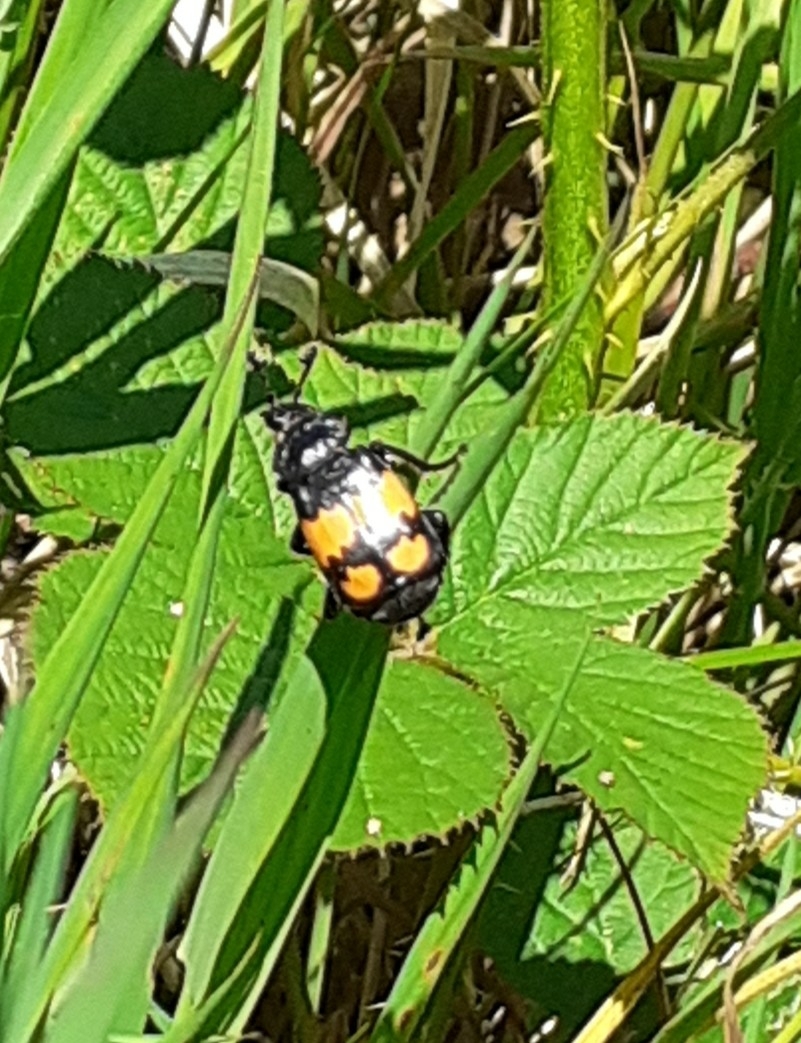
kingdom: Animalia
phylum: Arthropoda
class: Insecta
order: Coleoptera
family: Staphylinidae
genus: Nicrophorus
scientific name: Nicrophorus vespilloides
